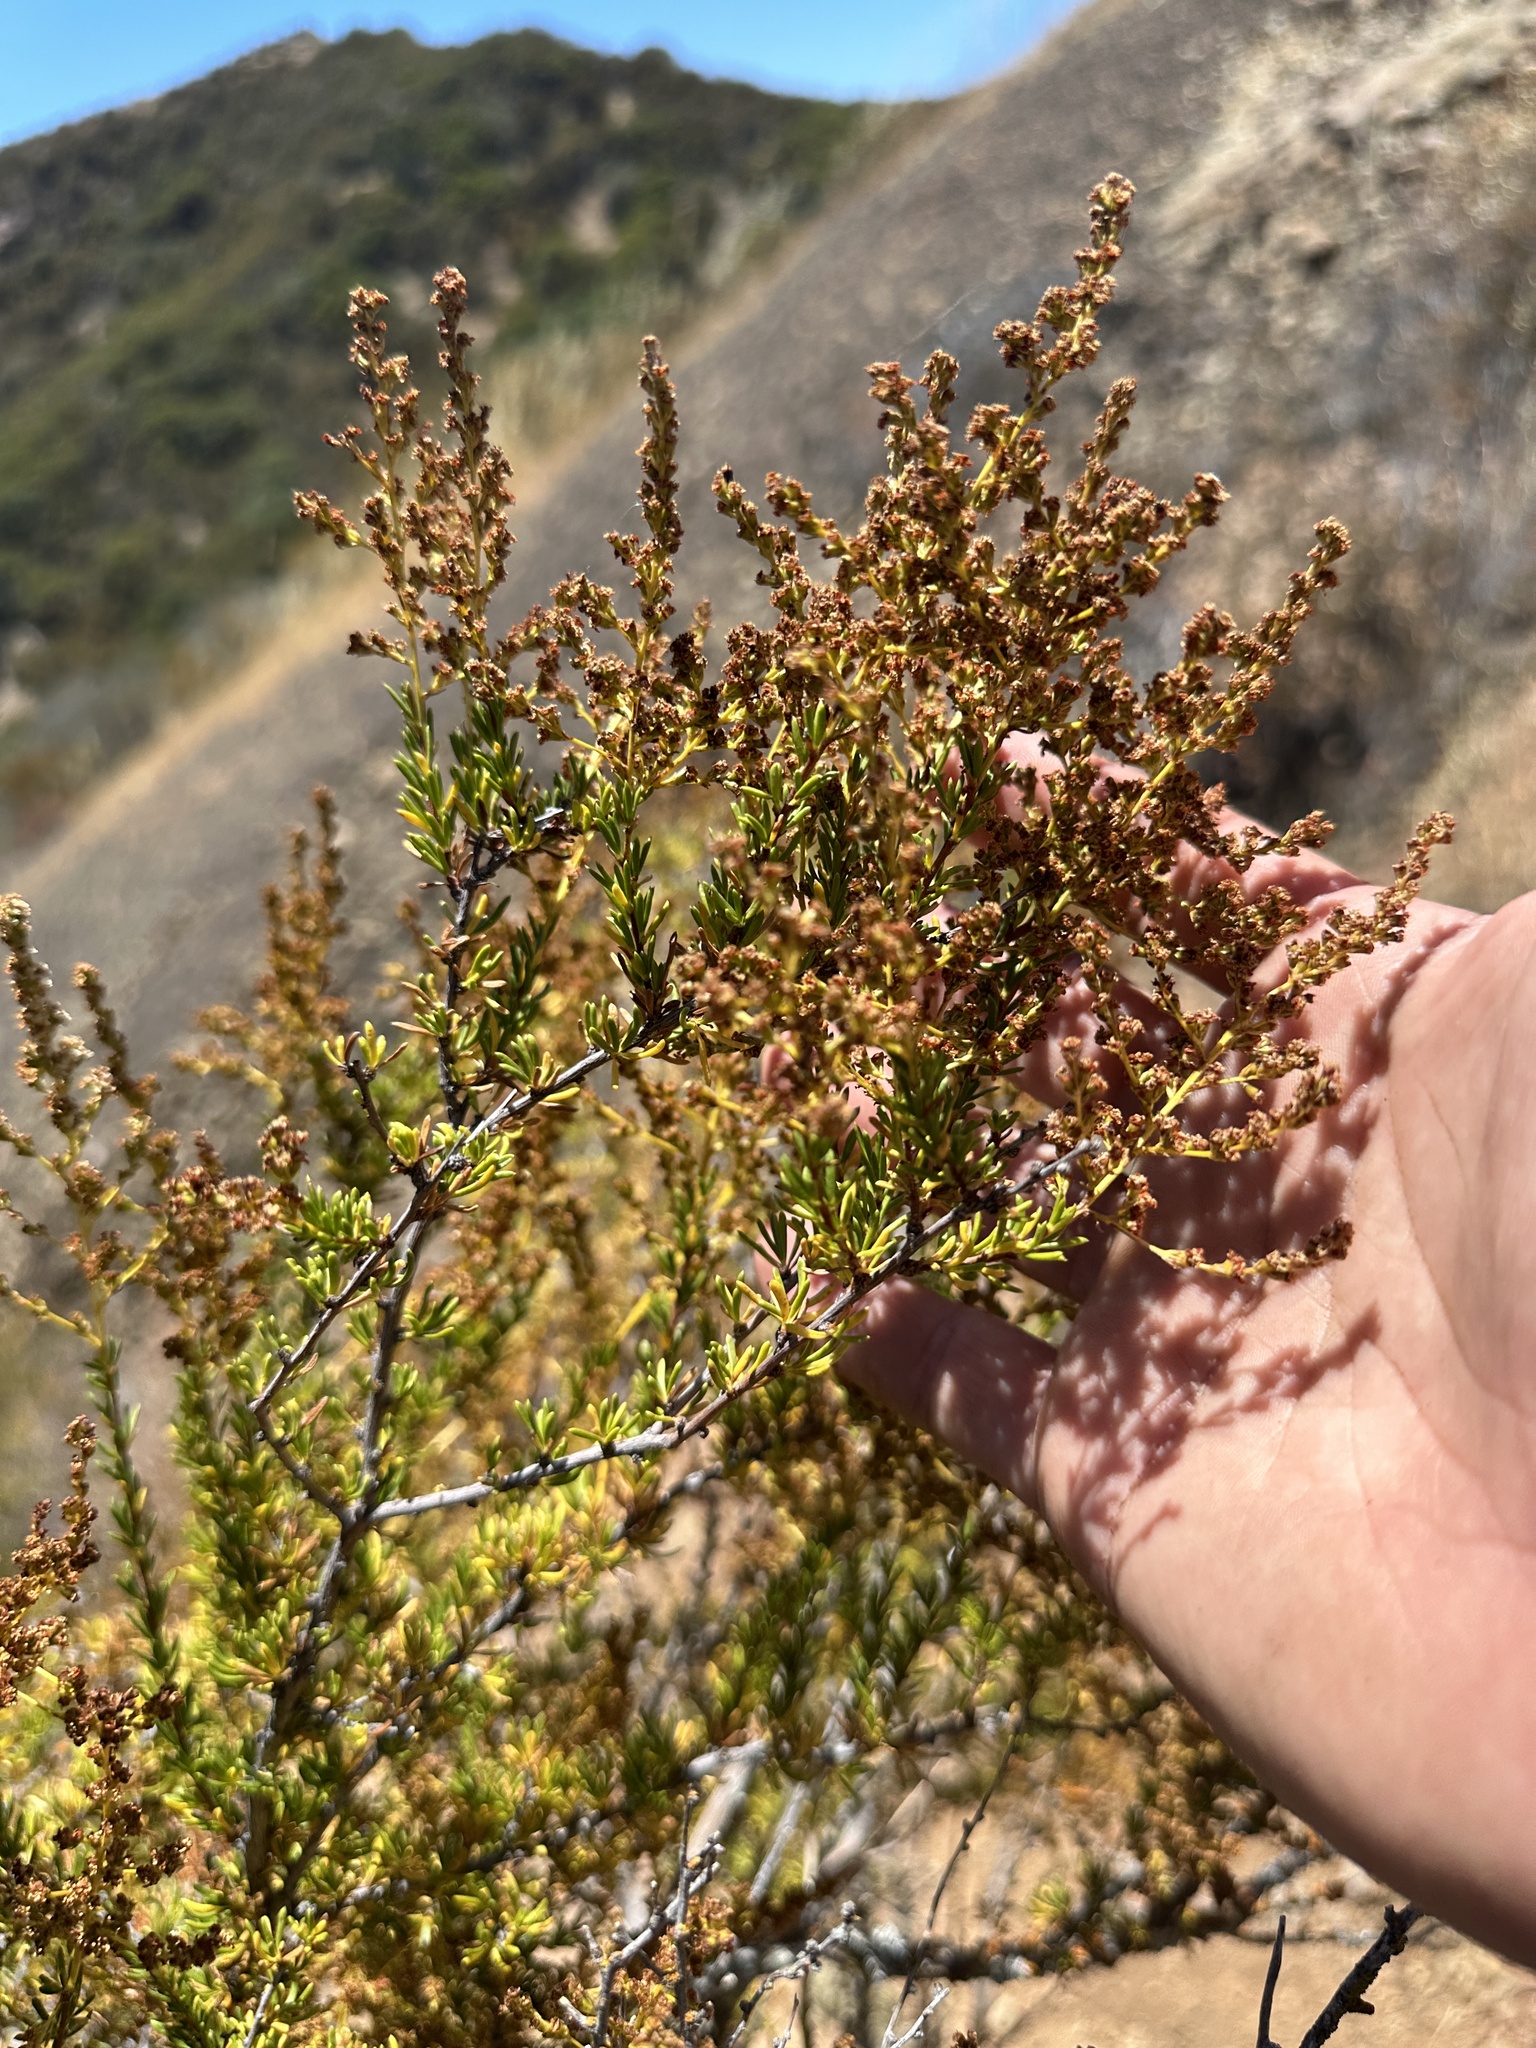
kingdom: Plantae
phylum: Tracheophyta
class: Magnoliopsida
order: Rosales
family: Rosaceae
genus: Adenostoma
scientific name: Adenostoma fasciculatum
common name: Chamise
